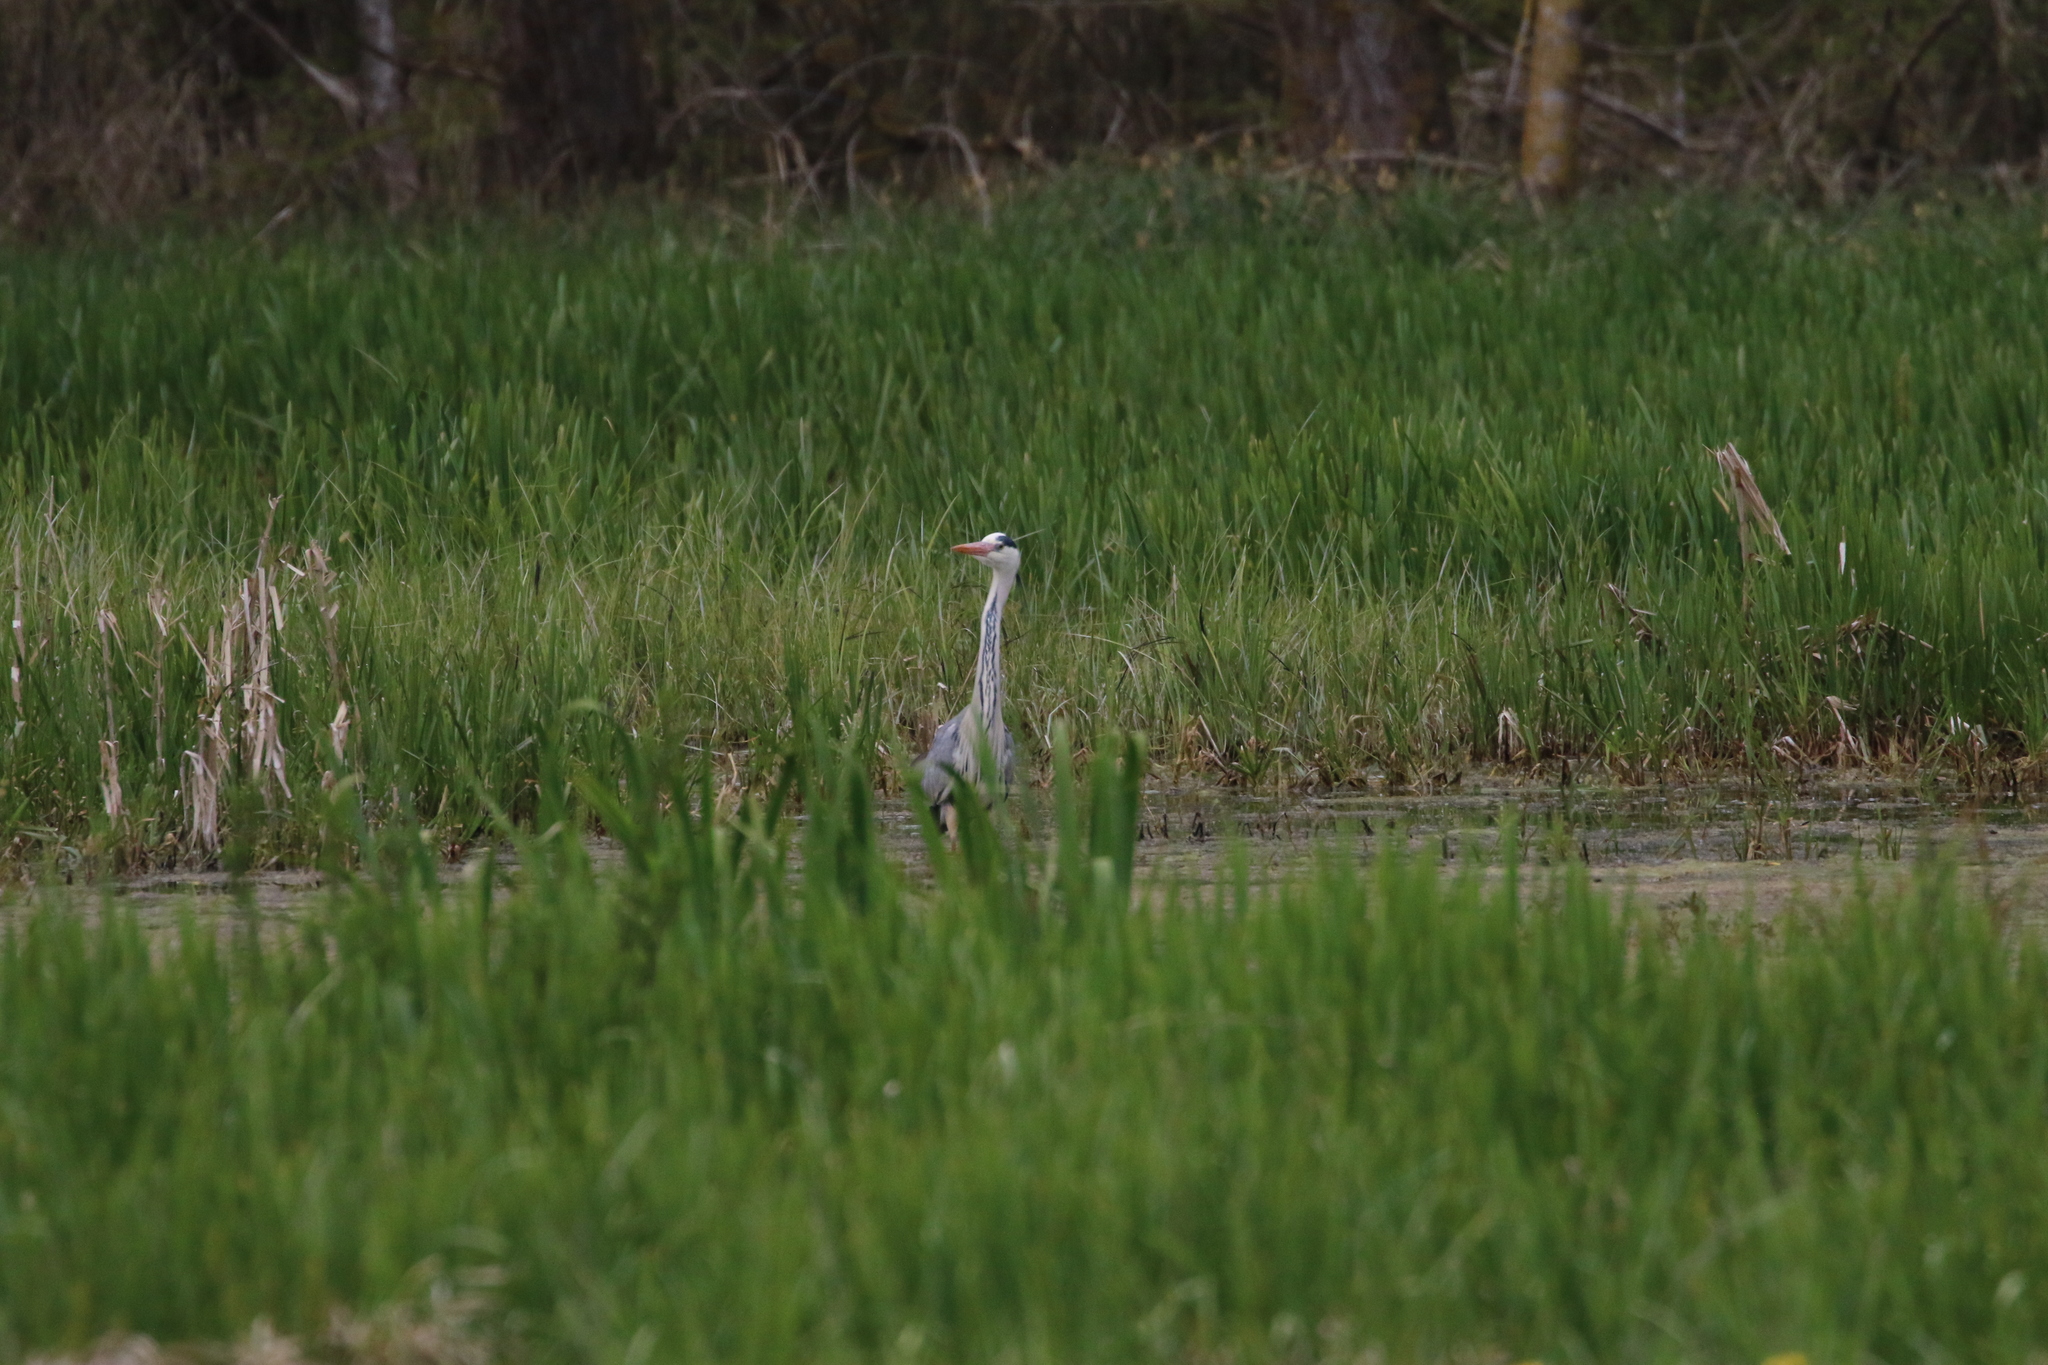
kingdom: Animalia
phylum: Chordata
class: Aves
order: Pelecaniformes
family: Ardeidae
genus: Ardea
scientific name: Ardea cinerea
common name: Grey heron
